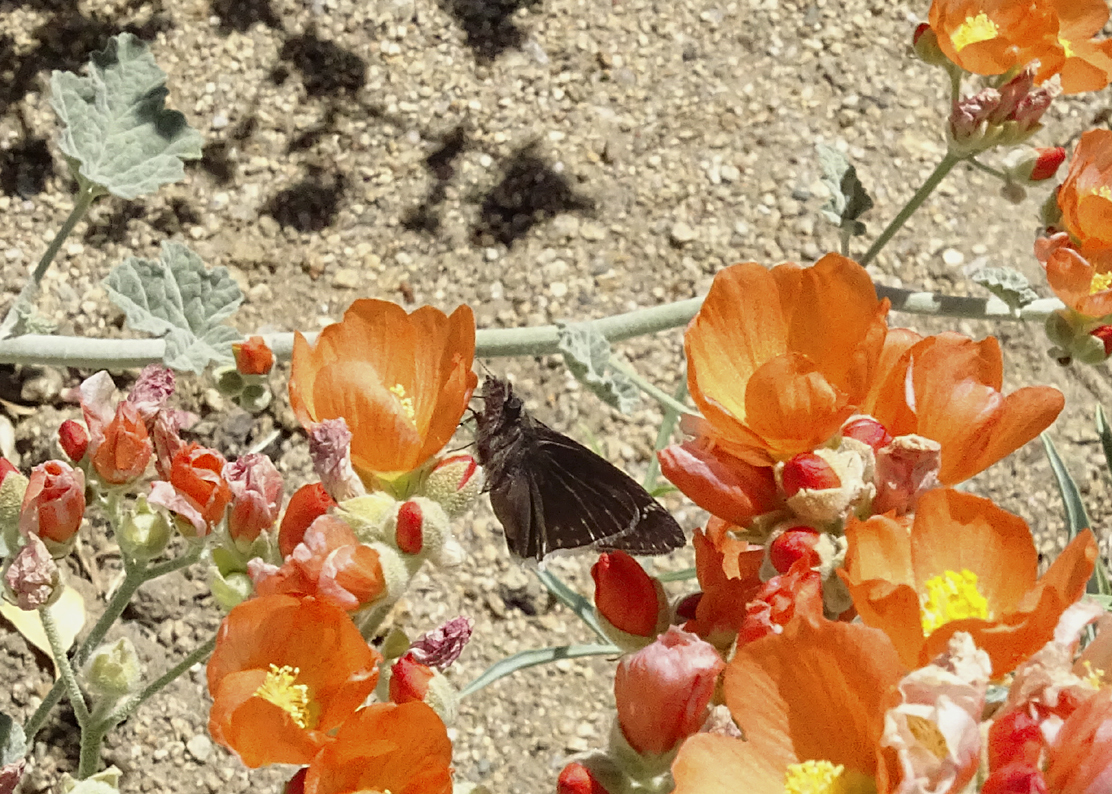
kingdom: Animalia
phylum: Arthropoda
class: Insecta
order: Lepidoptera
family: Hesperiidae
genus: Erynnis
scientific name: Erynnis funeralis
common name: Funereal duskywing
